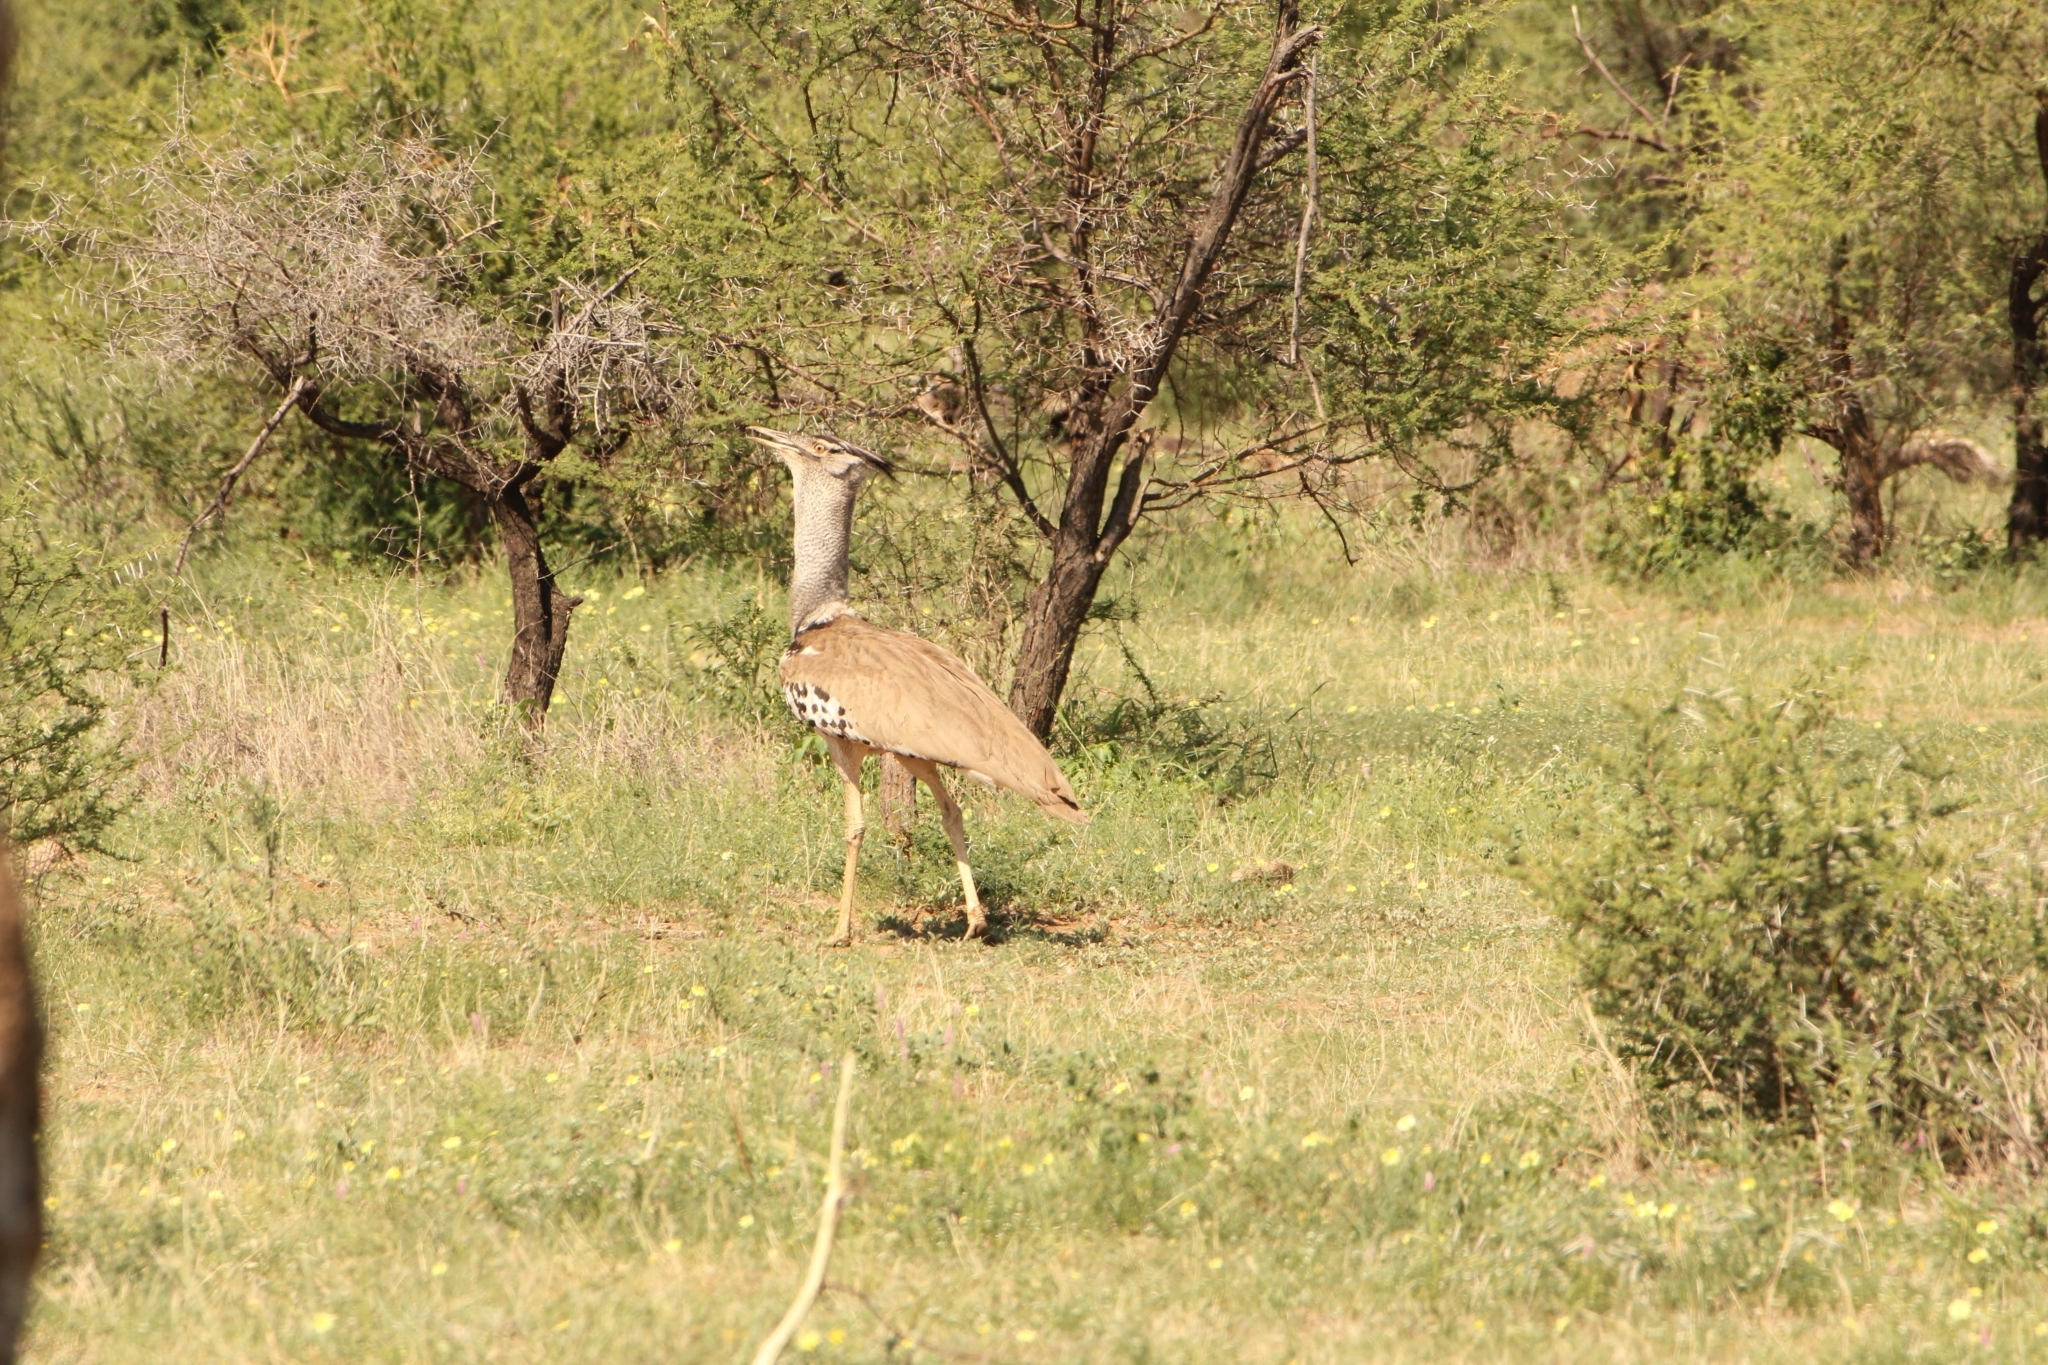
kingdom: Animalia
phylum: Chordata
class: Aves
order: Otidiformes
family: Otididae
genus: Ardeotis
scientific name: Ardeotis kori
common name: Kori bustard
